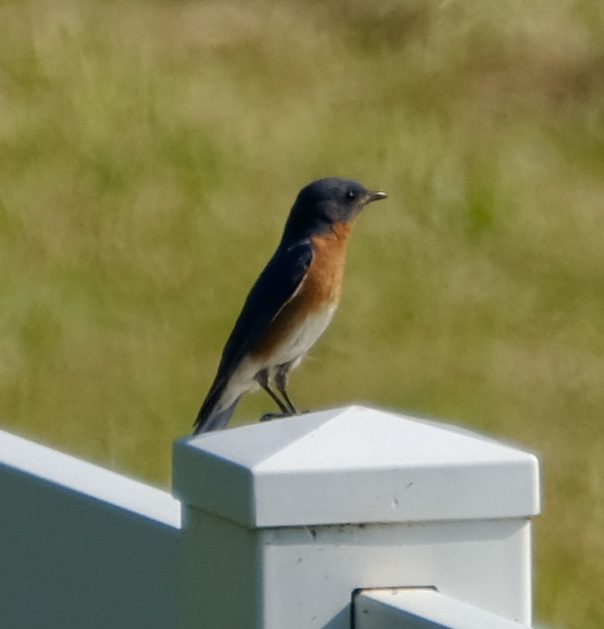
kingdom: Animalia
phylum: Chordata
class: Aves
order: Passeriformes
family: Turdidae
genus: Sialia
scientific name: Sialia sialis
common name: Eastern bluebird
